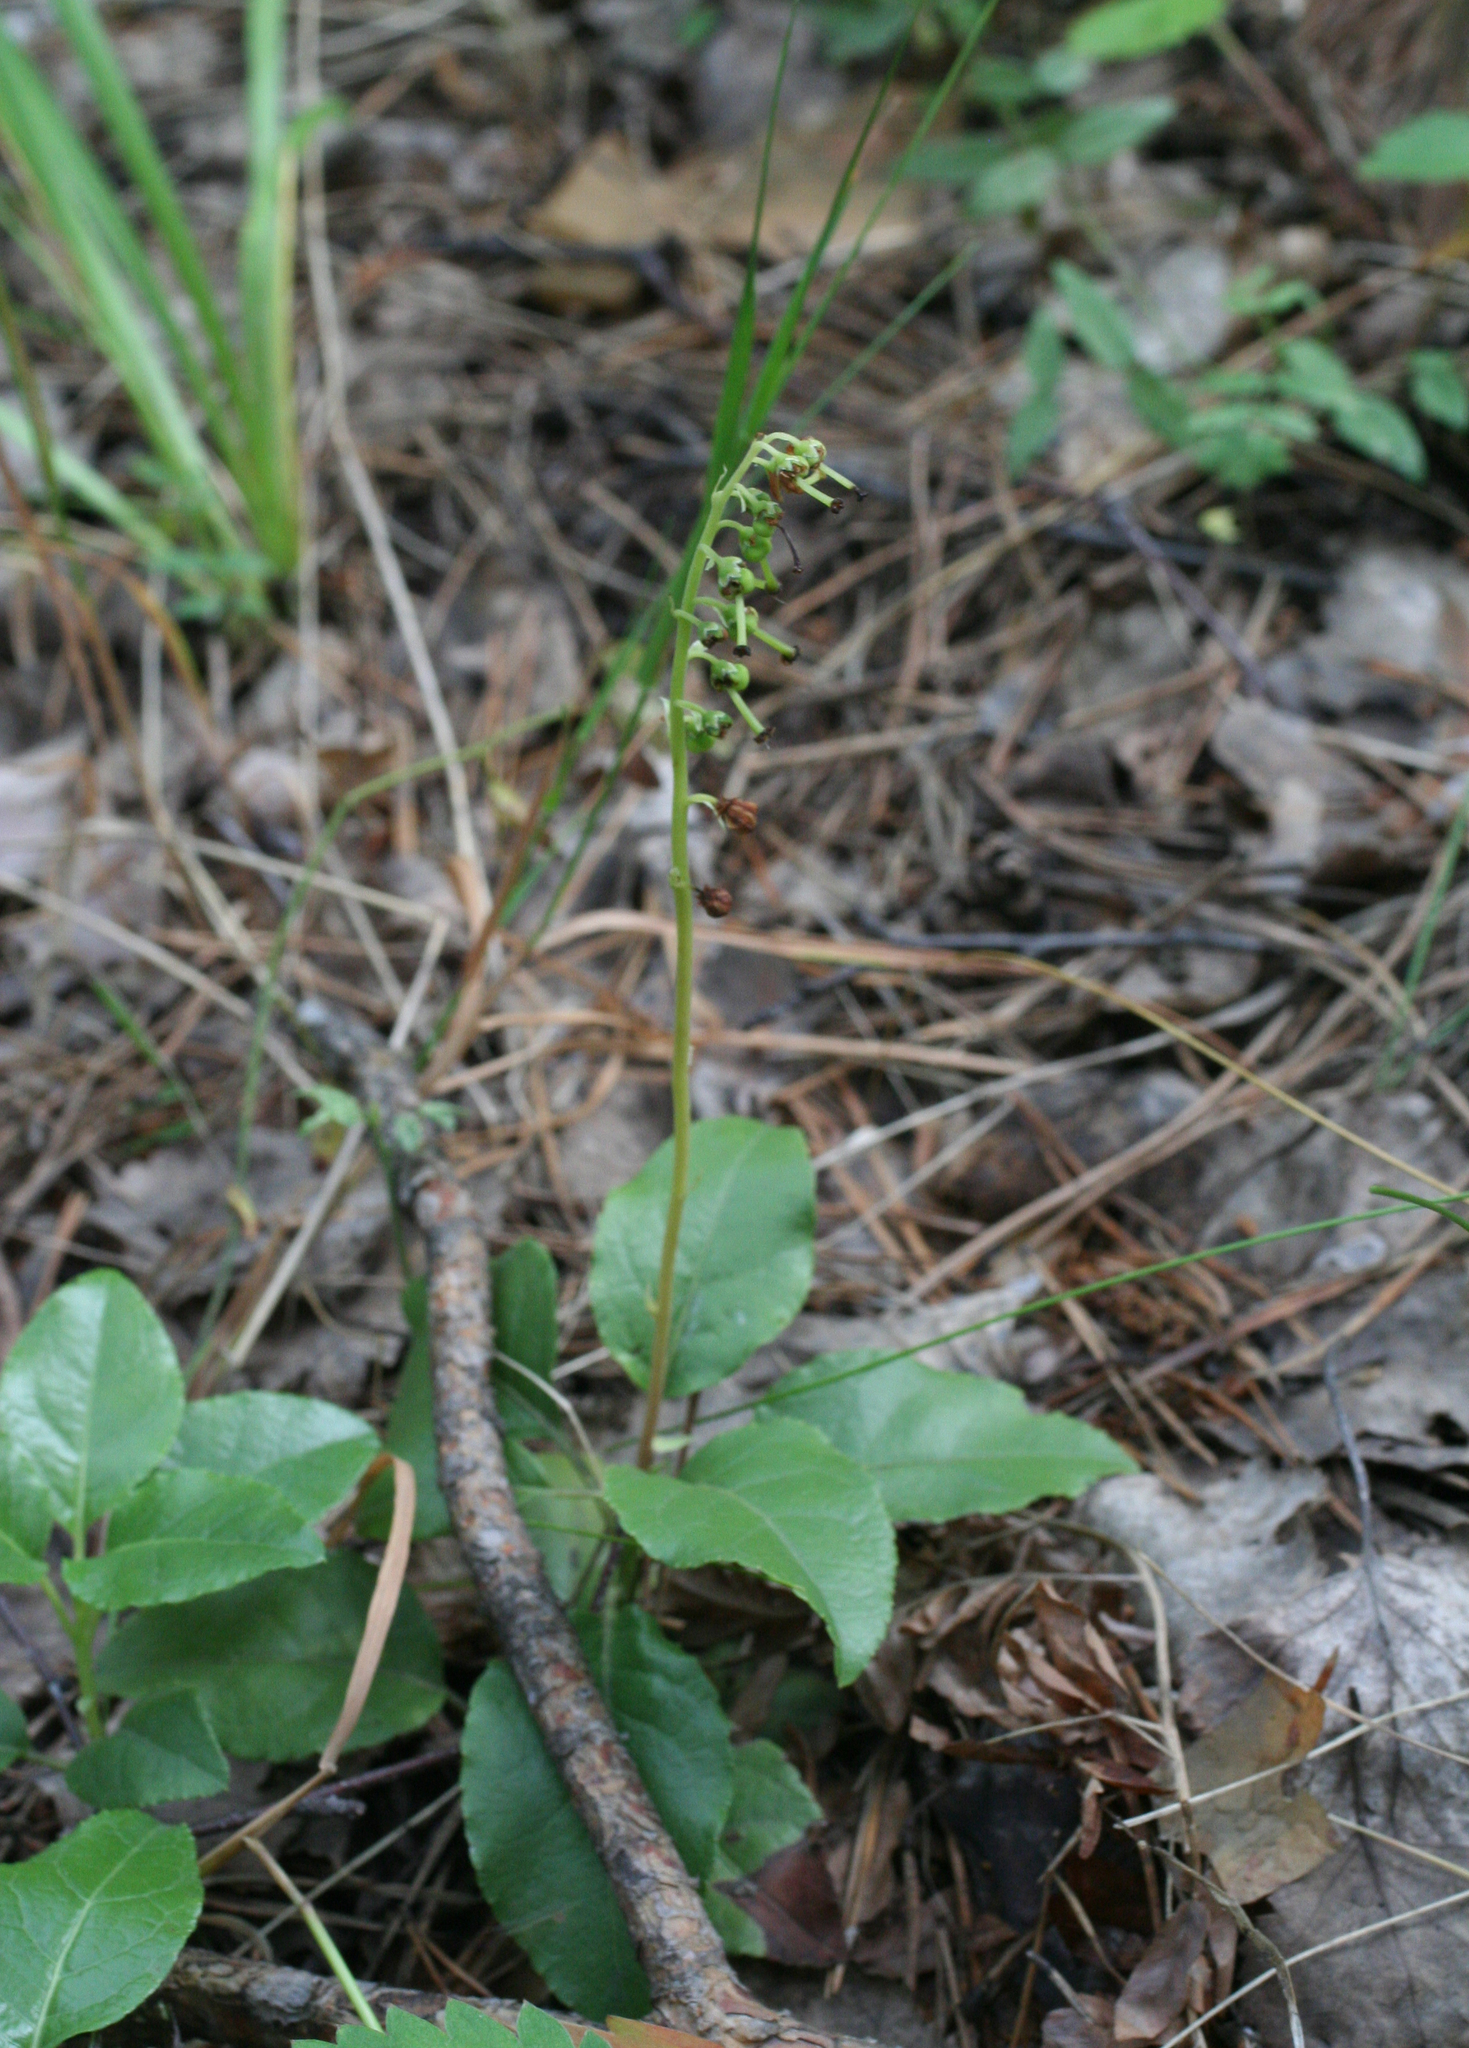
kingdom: Plantae
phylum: Tracheophyta
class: Magnoliopsida
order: Ericales
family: Ericaceae
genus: Orthilia
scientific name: Orthilia secunda
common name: One-sided orthilia
